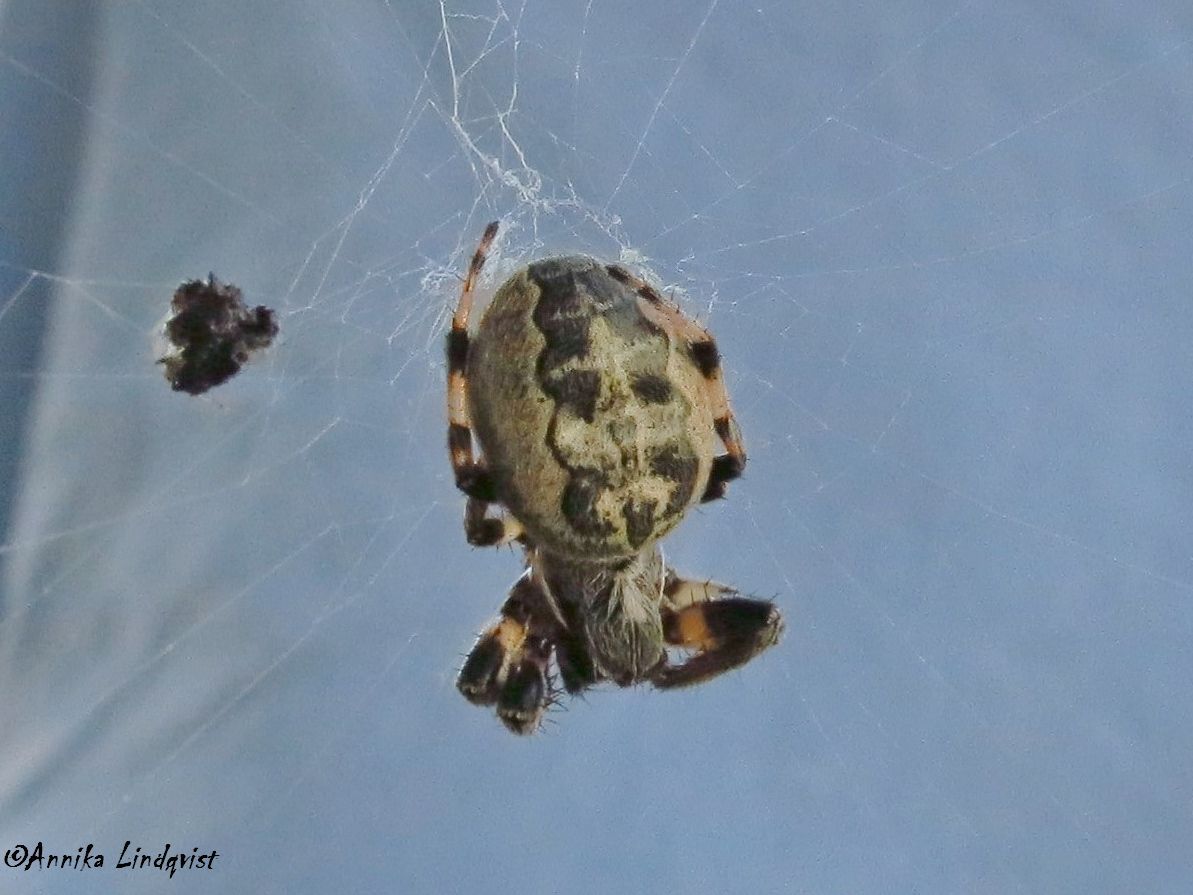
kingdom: Animalia
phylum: Arthropoda
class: Arachnida
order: Araneae
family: Araneidae
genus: Larinioides
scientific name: Larinioides cornutus
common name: Furrow orbweaver
